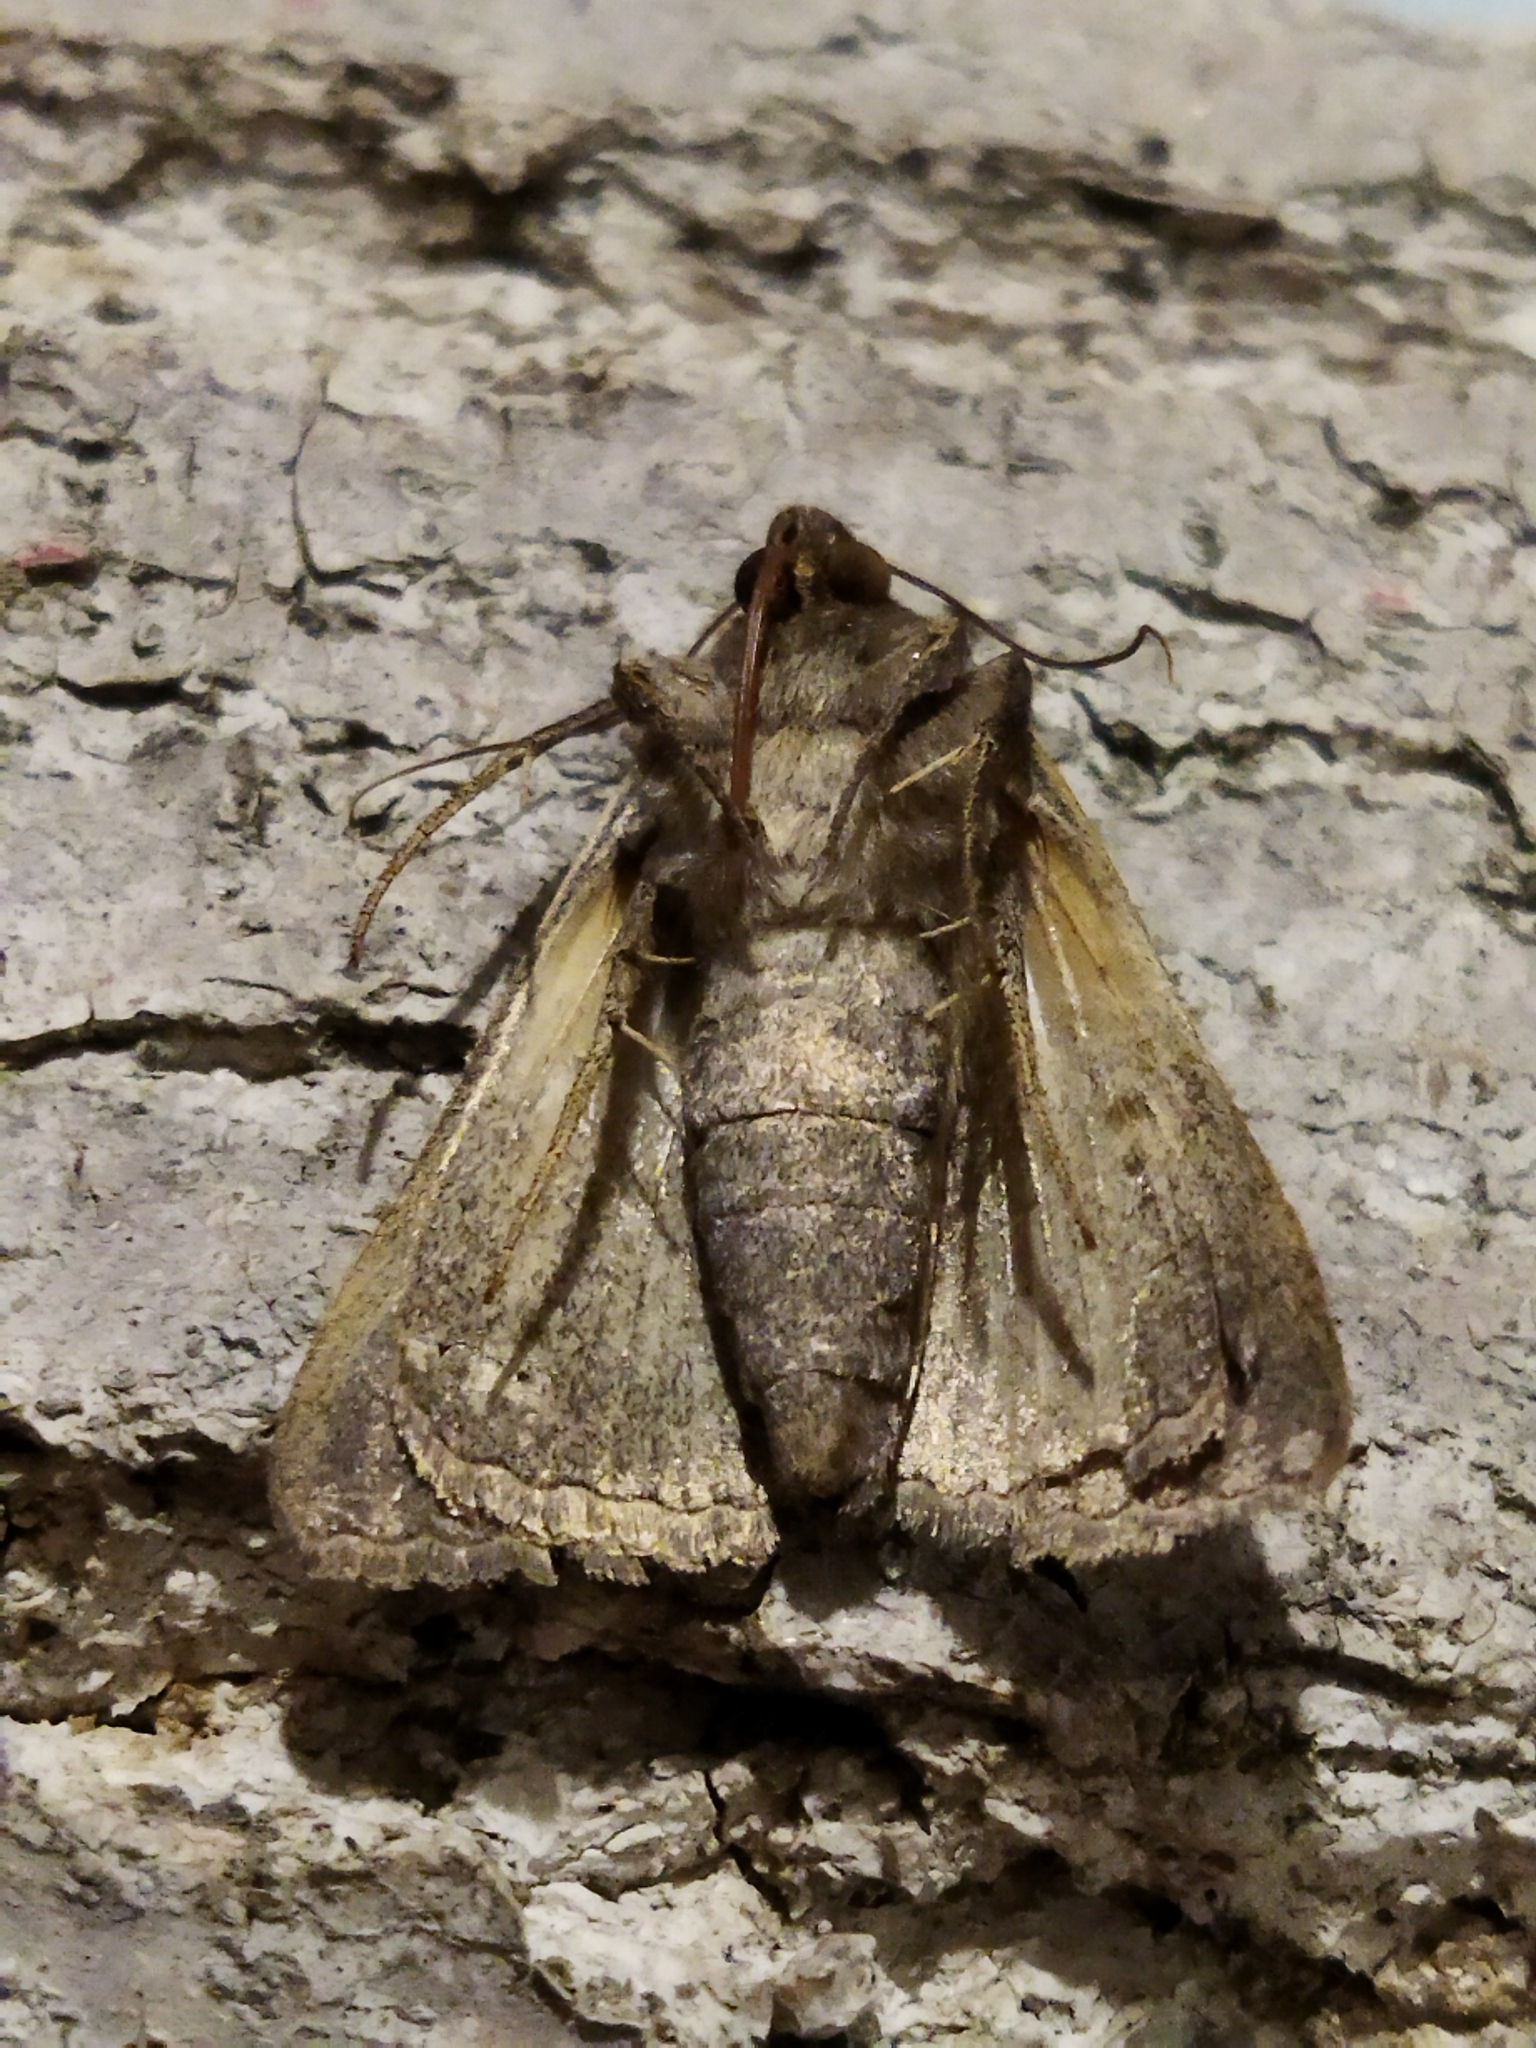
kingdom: Animalia
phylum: Arthropoda
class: Insecta
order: Lepidoptera
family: Erebidae
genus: Clytie
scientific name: Clytie syriaca
